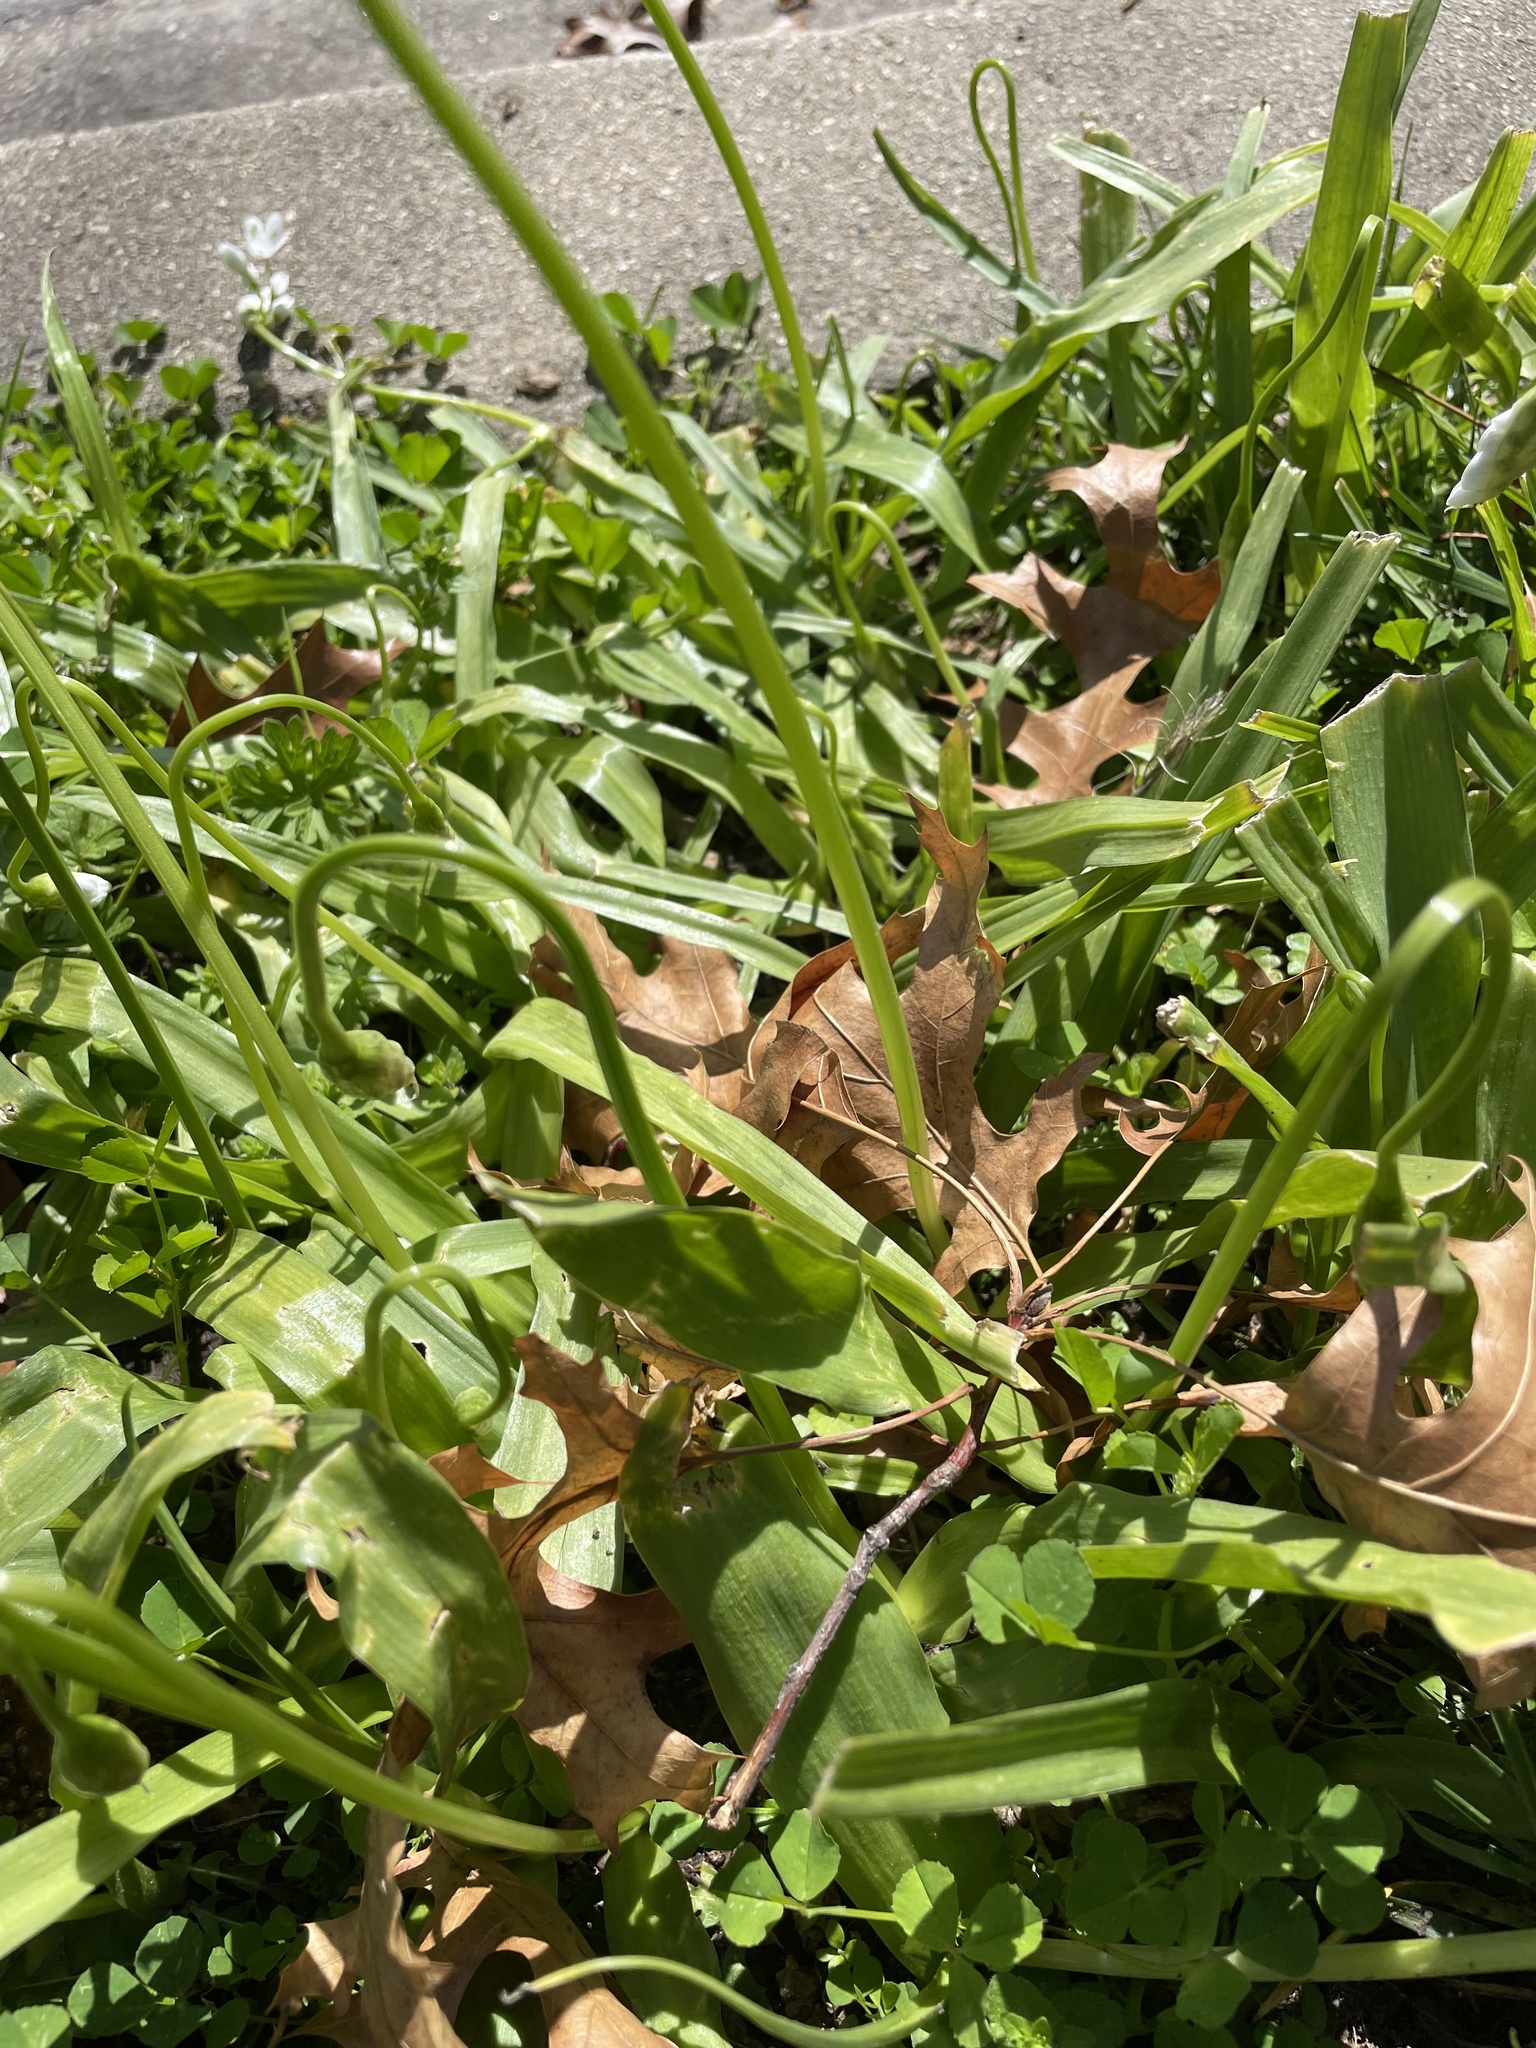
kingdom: Plantae
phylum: Tracheophyta
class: Liliopsida
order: Asparagales
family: Amaryllidaceae
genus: Allium
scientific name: Allium neapolitanum
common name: Neapolitan garlic
